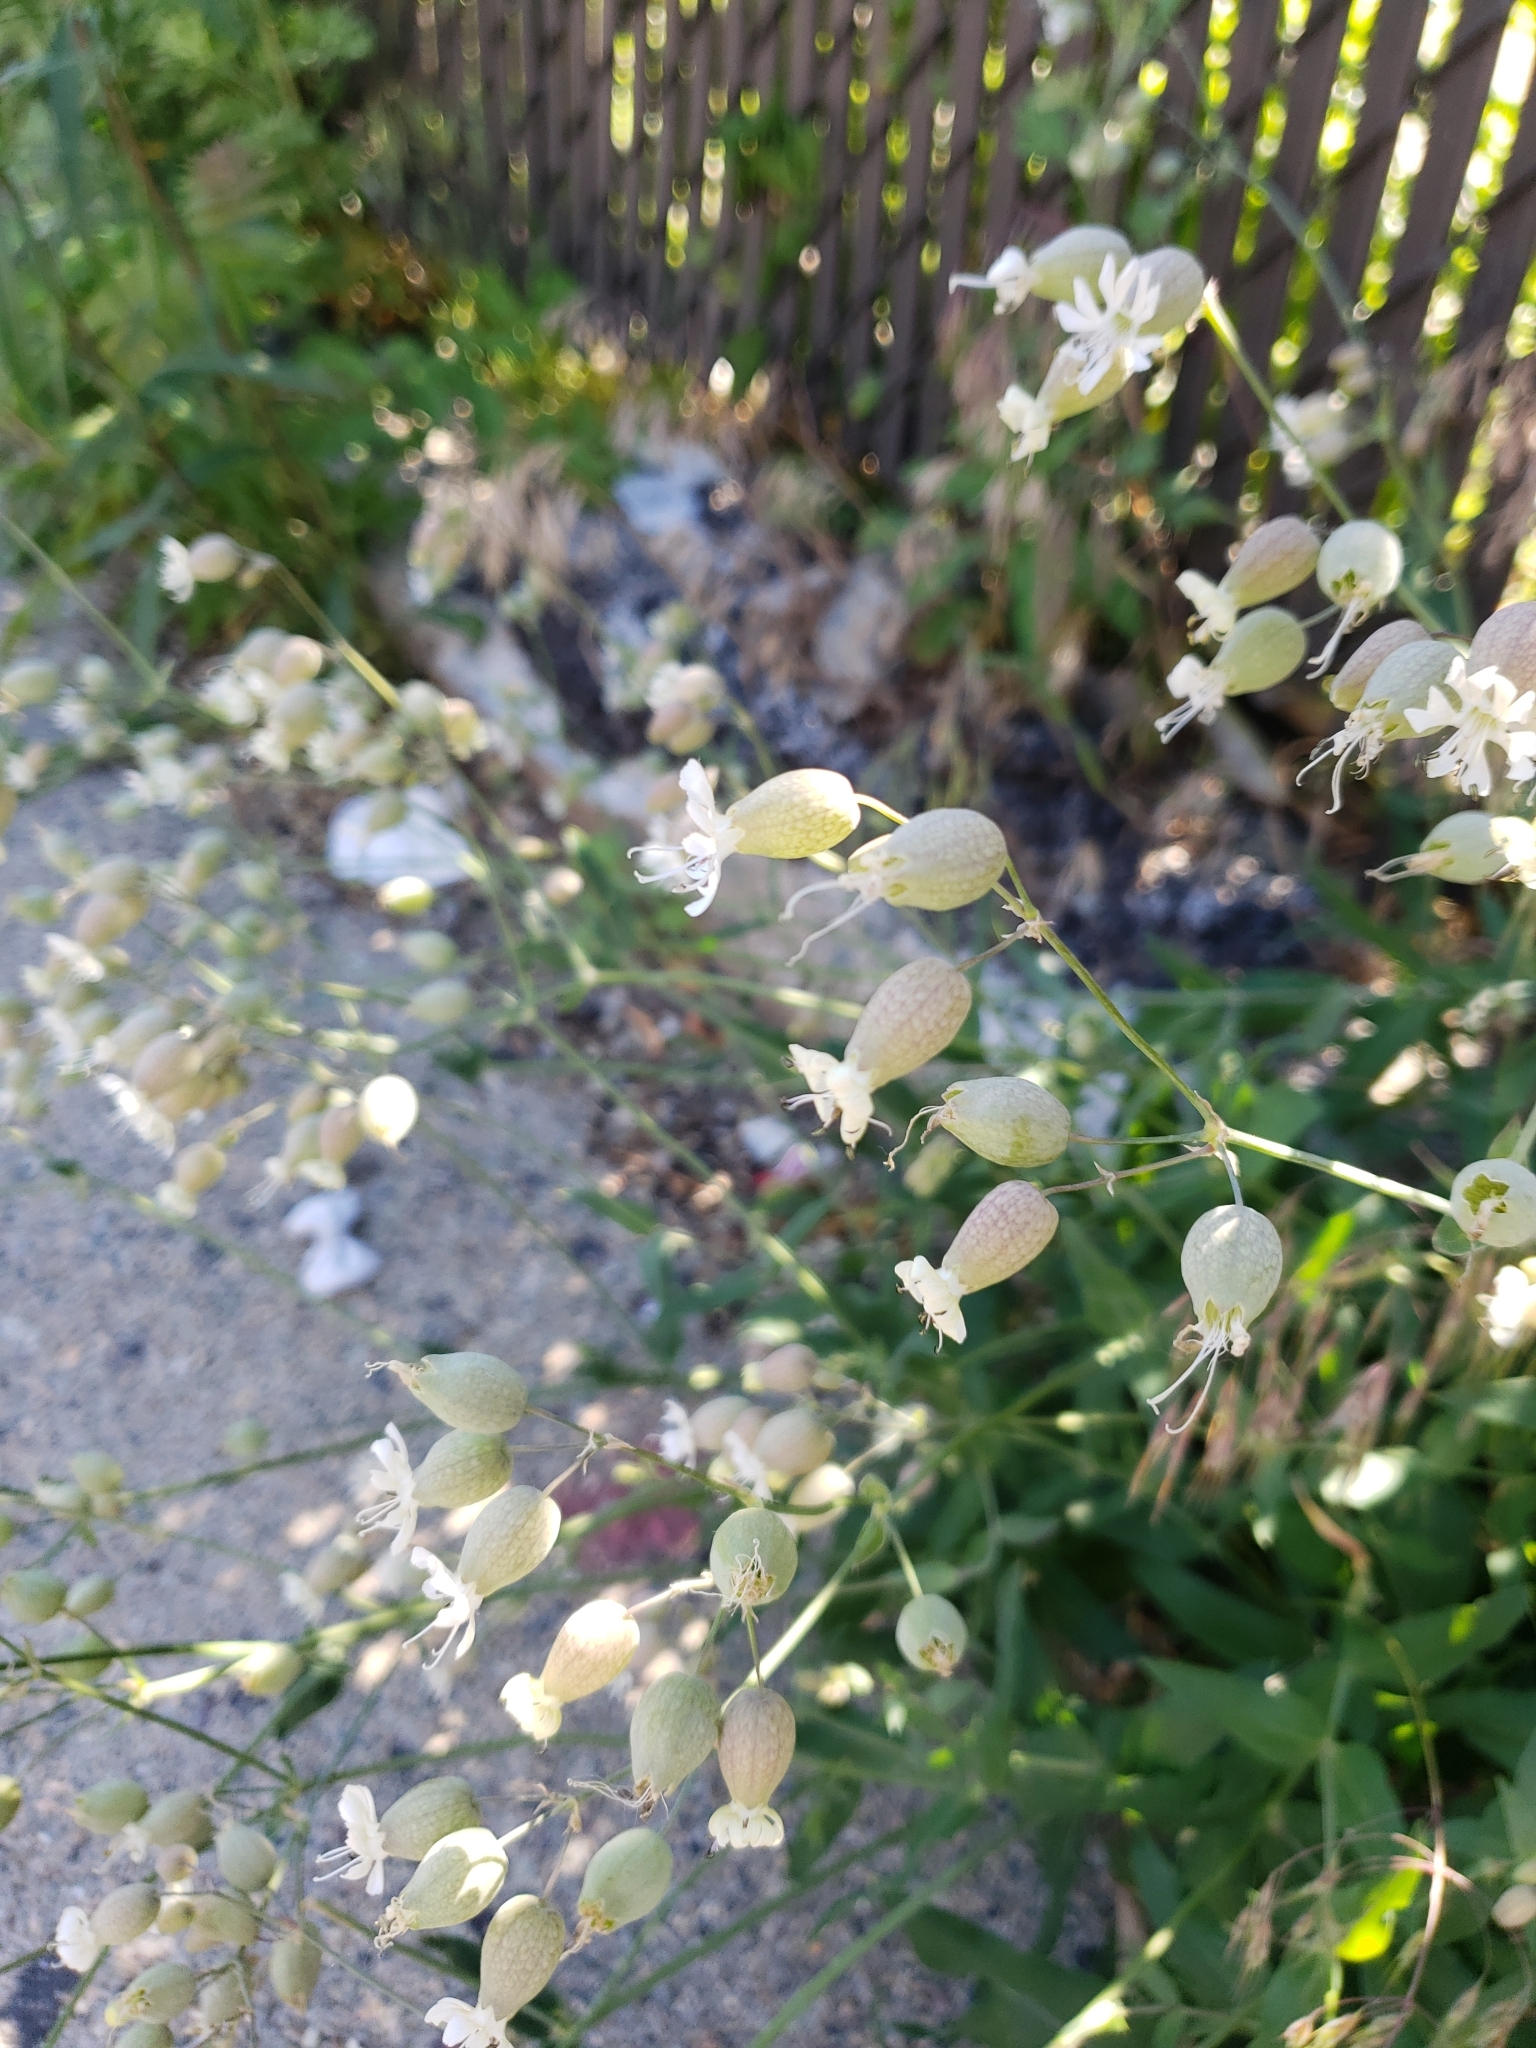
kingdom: Plantae
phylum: Tracheophyta
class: Magnoliopsida
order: Caryophyllales
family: Caryophyllaceae
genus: Silene
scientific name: Silene vulgaris
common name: Bladder campion
